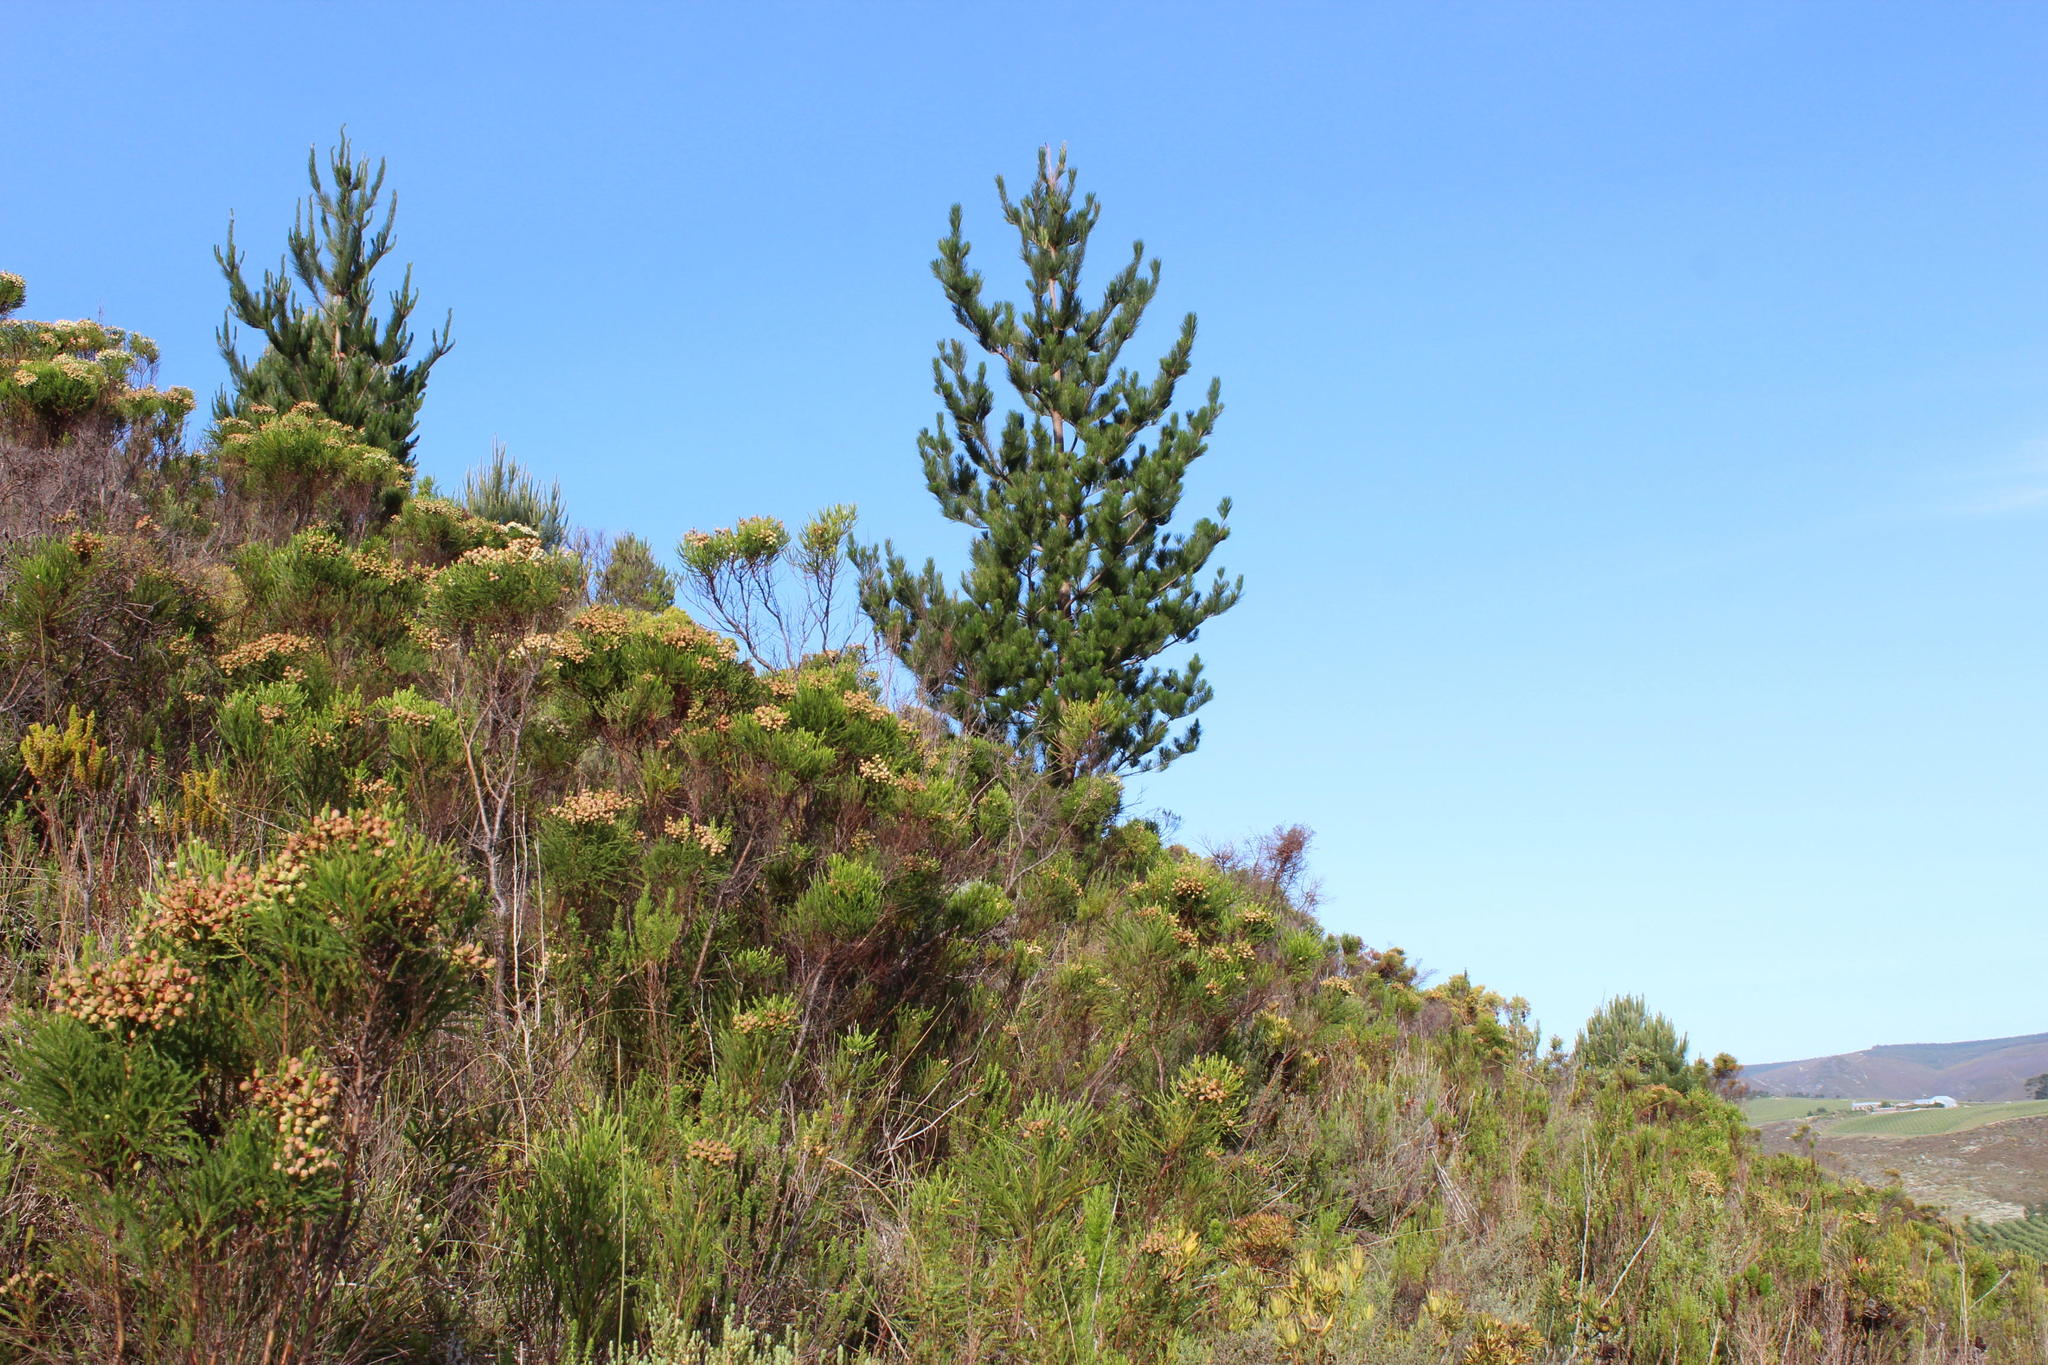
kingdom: Plantae
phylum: Tracheophyta
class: Pinopsida
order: Pinales
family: Pinaceae
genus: Pinus
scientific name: Pinus radiata
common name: Monterey pine
